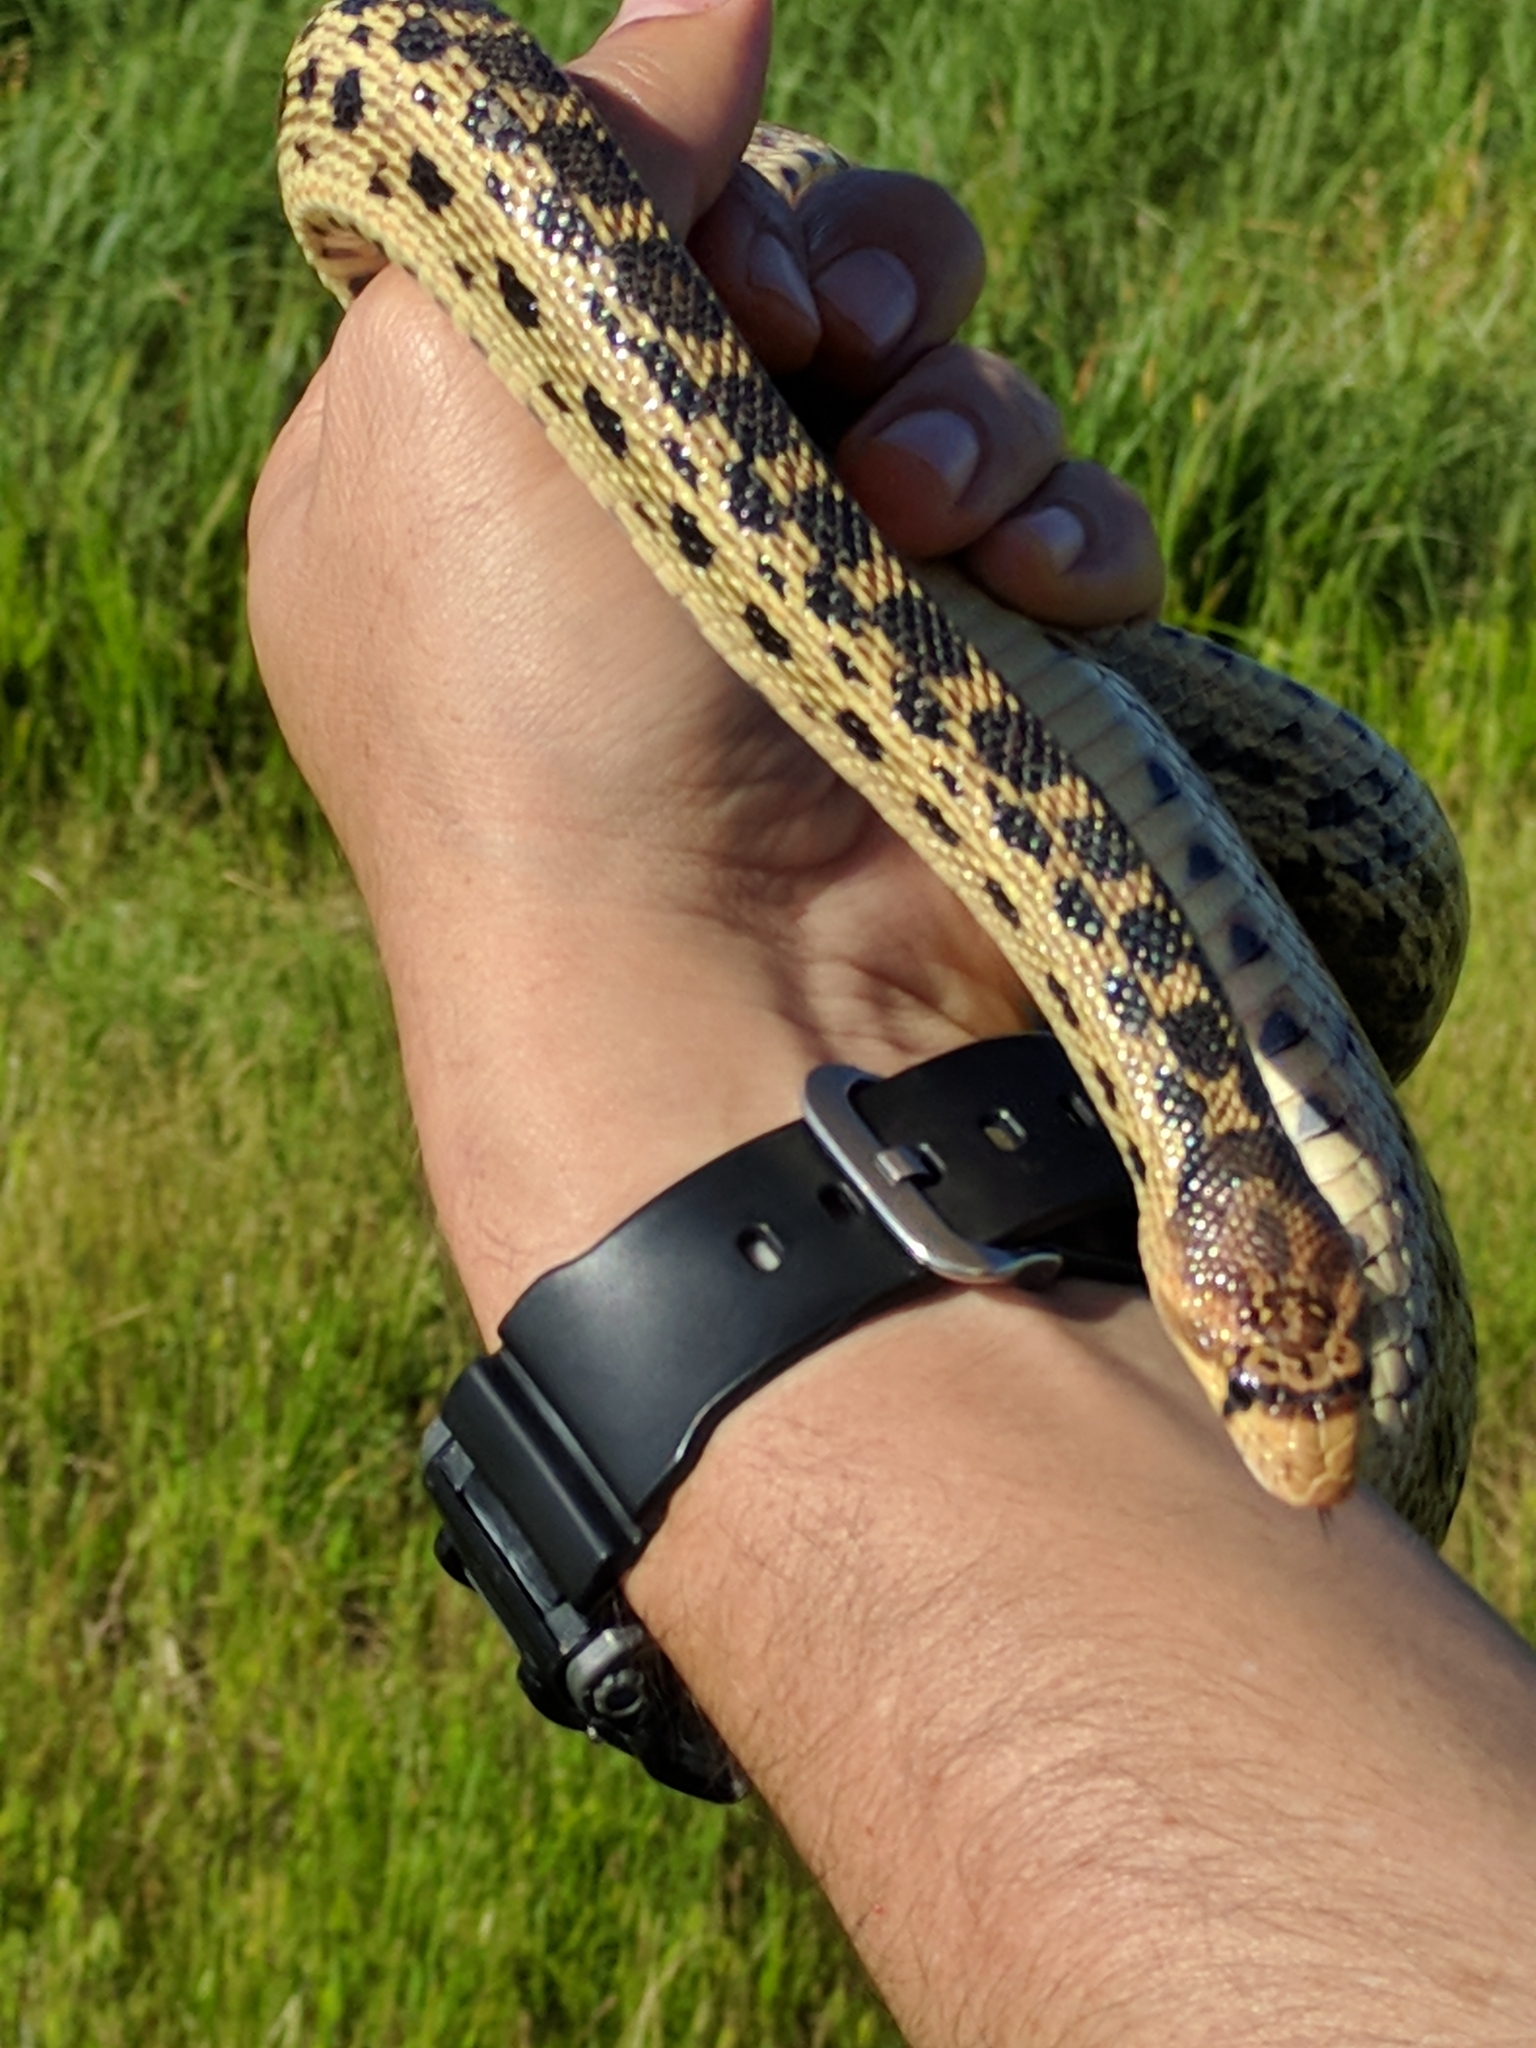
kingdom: Animalia
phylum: Chordata
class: Squamata
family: Colubridae
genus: Pituophis
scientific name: Pituophis catenifer
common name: Gopher snake
